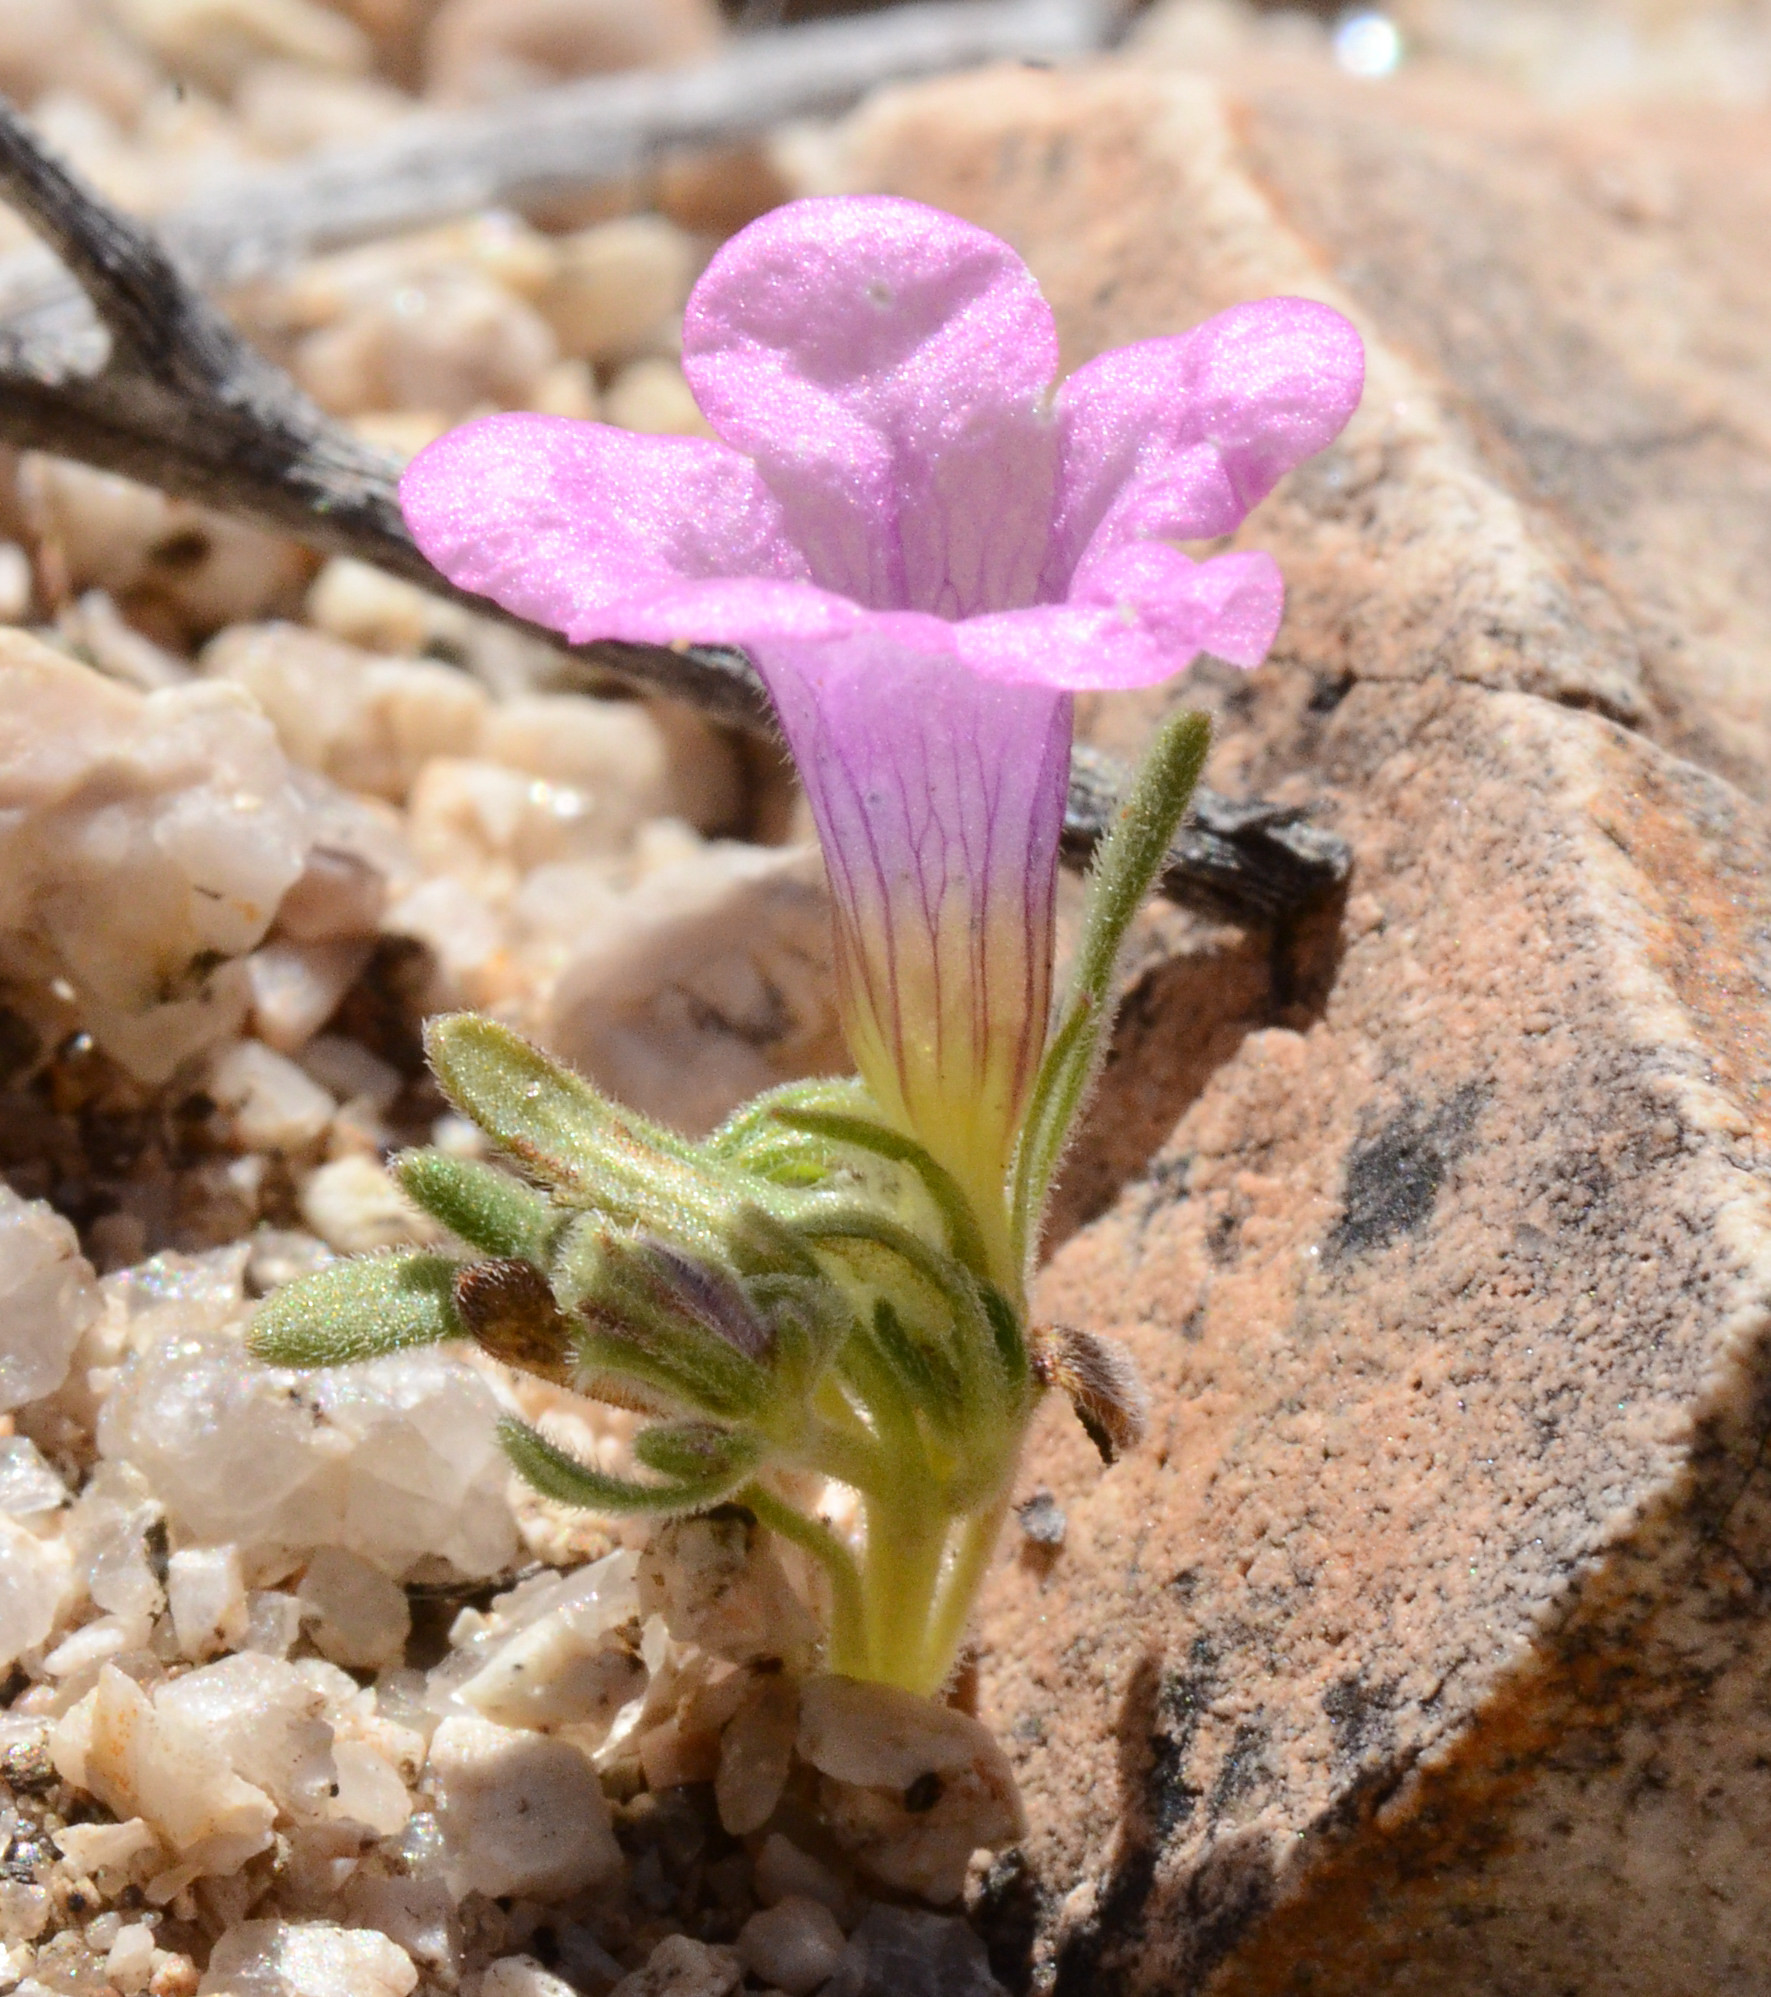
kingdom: Plantae
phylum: Tracheophyta
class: Magnoliopsida
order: Boraginales
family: Namaceae
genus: Nama
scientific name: Nama demissa
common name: Leafy nama
